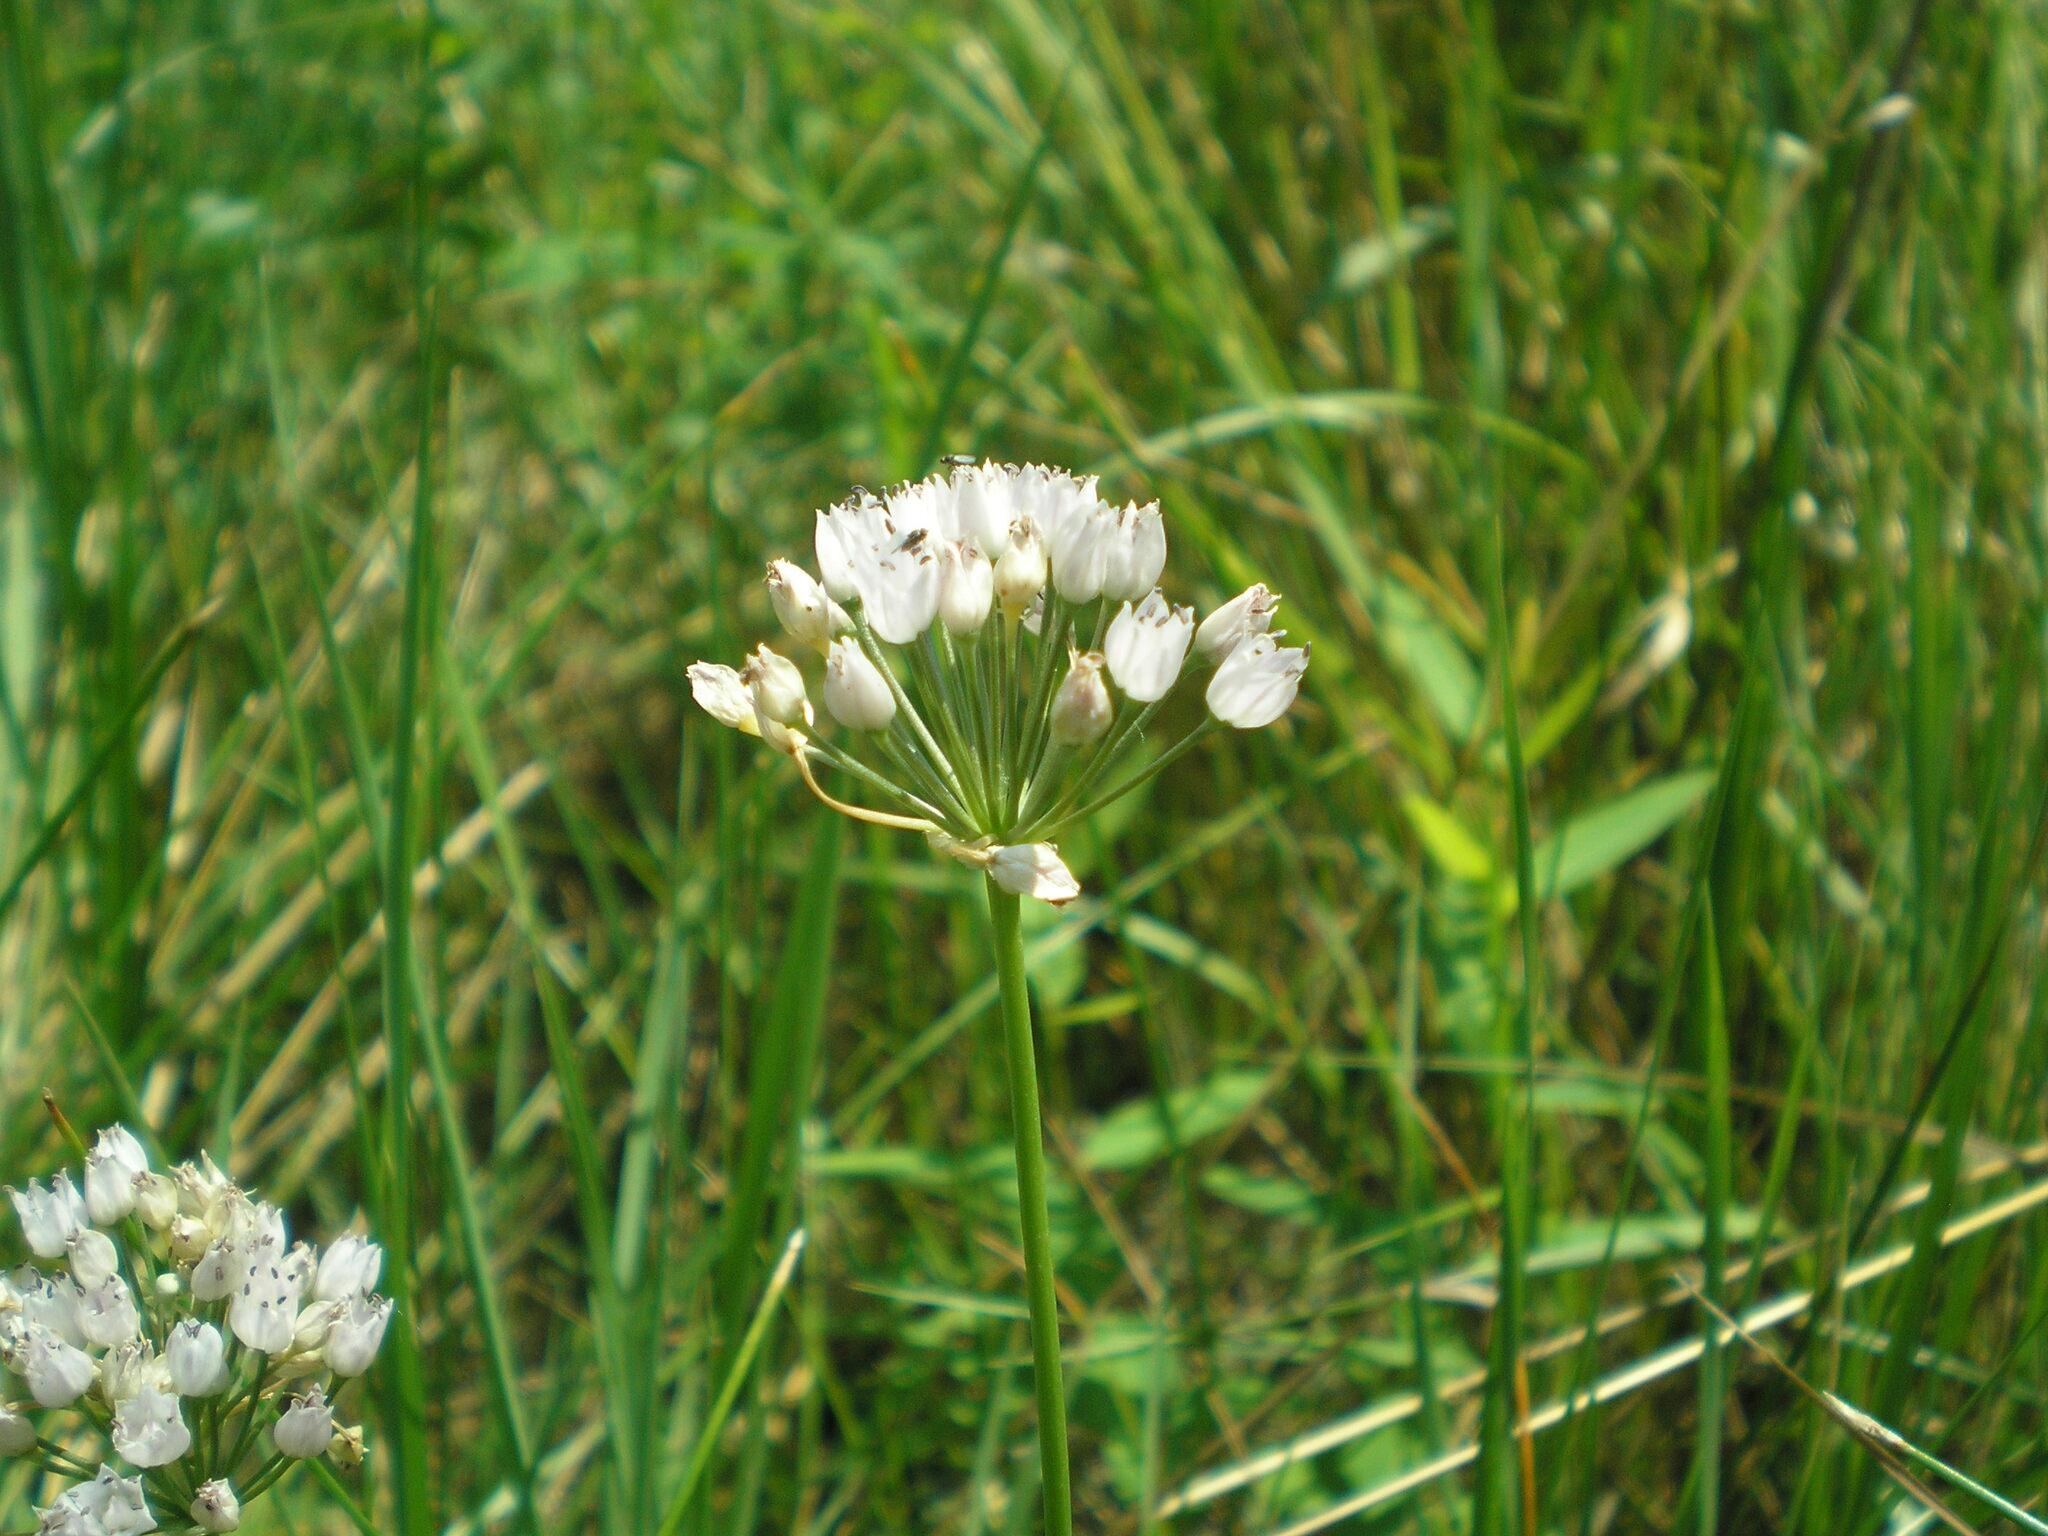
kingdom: Plantae
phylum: Tracheophyta
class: Liliopsida
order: Asparagales
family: Amaryllidaceae
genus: Allium
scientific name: Allium angulosum
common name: Mouse garlic
